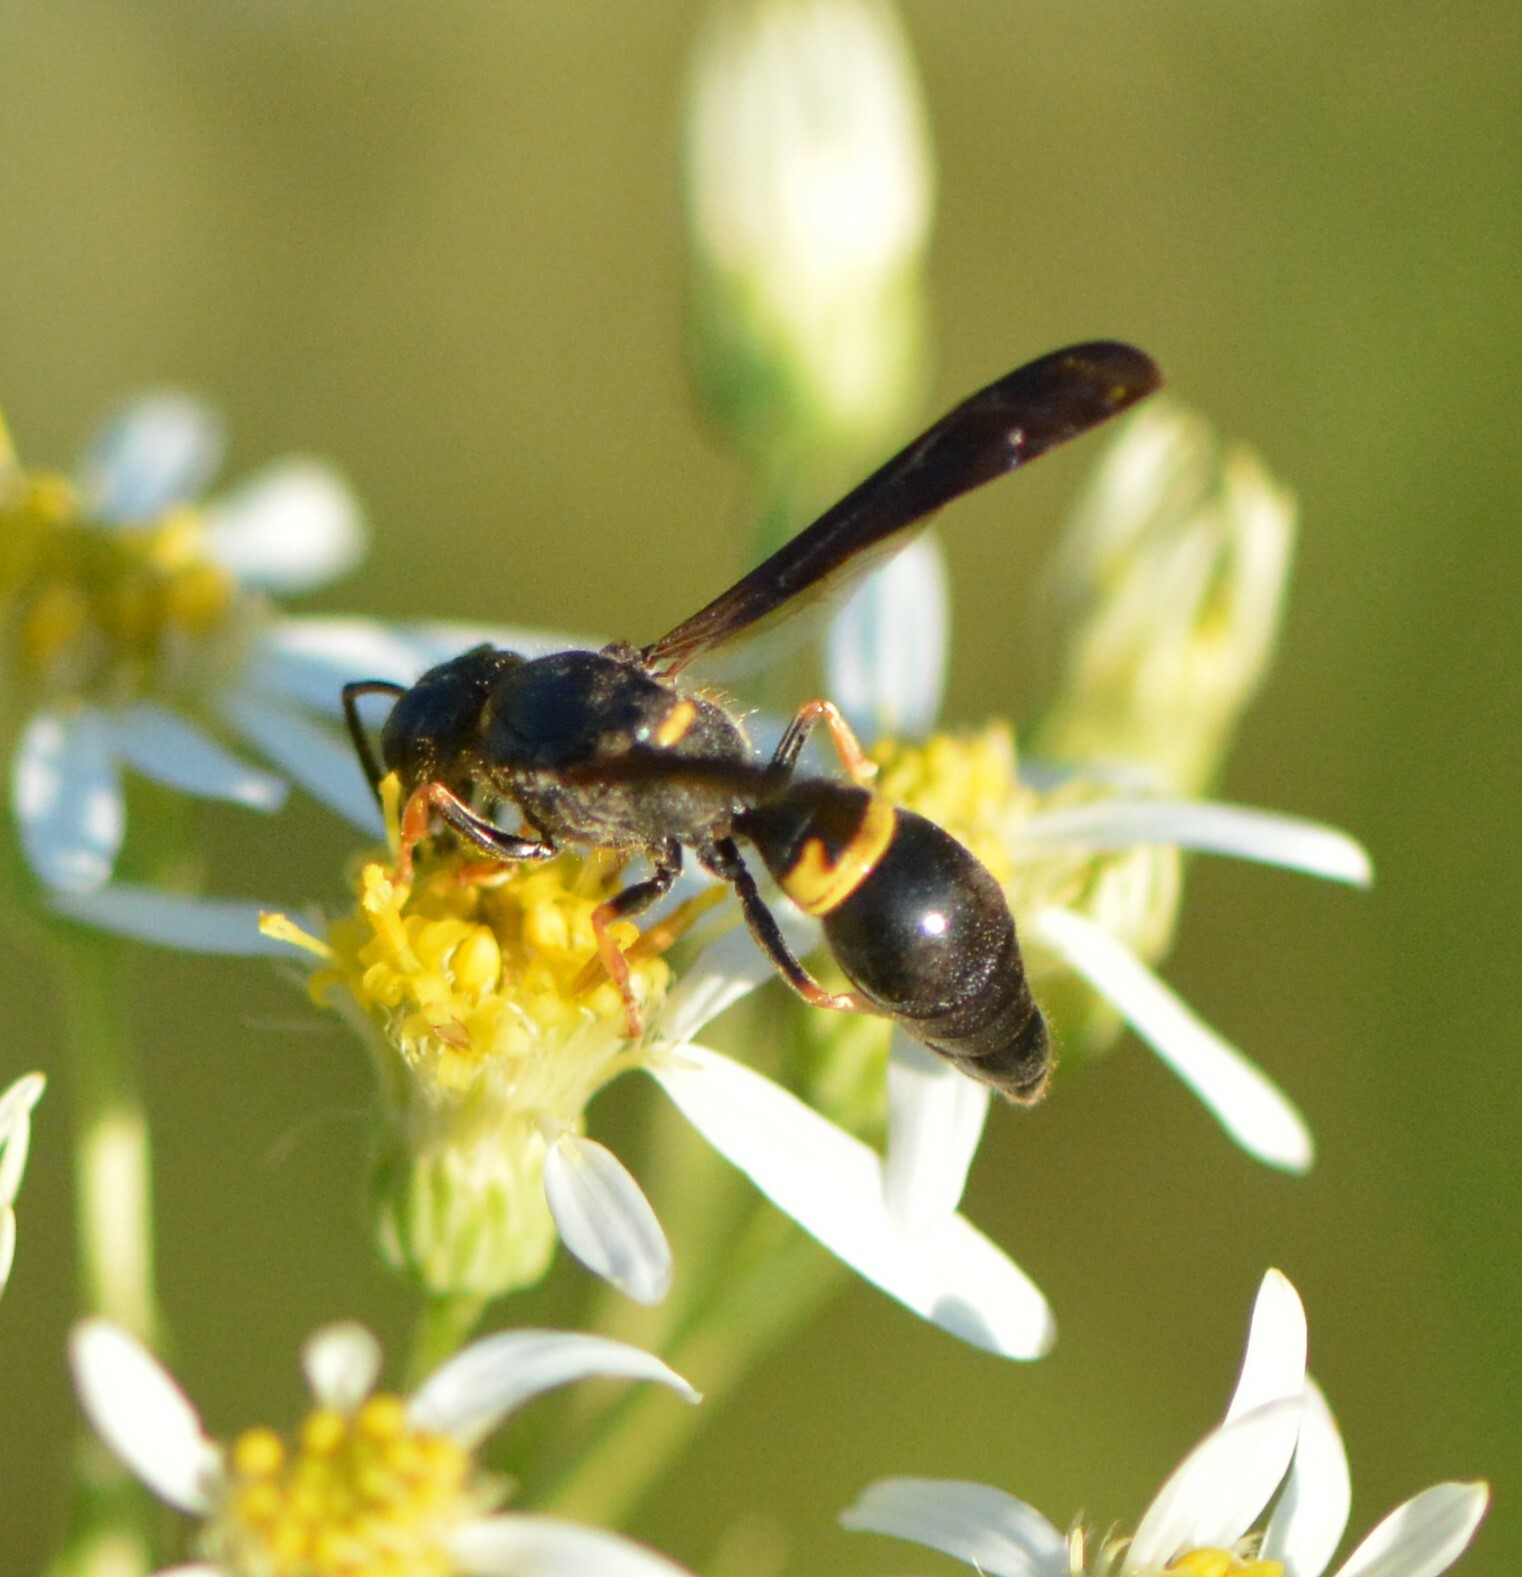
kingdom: Animalia
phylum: Arthropoda
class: Insecta
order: Hymenoptera
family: Vespidae
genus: Ancistrocerus
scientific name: Ancistrocerus unifasciatus
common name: One-banded mason wasp
